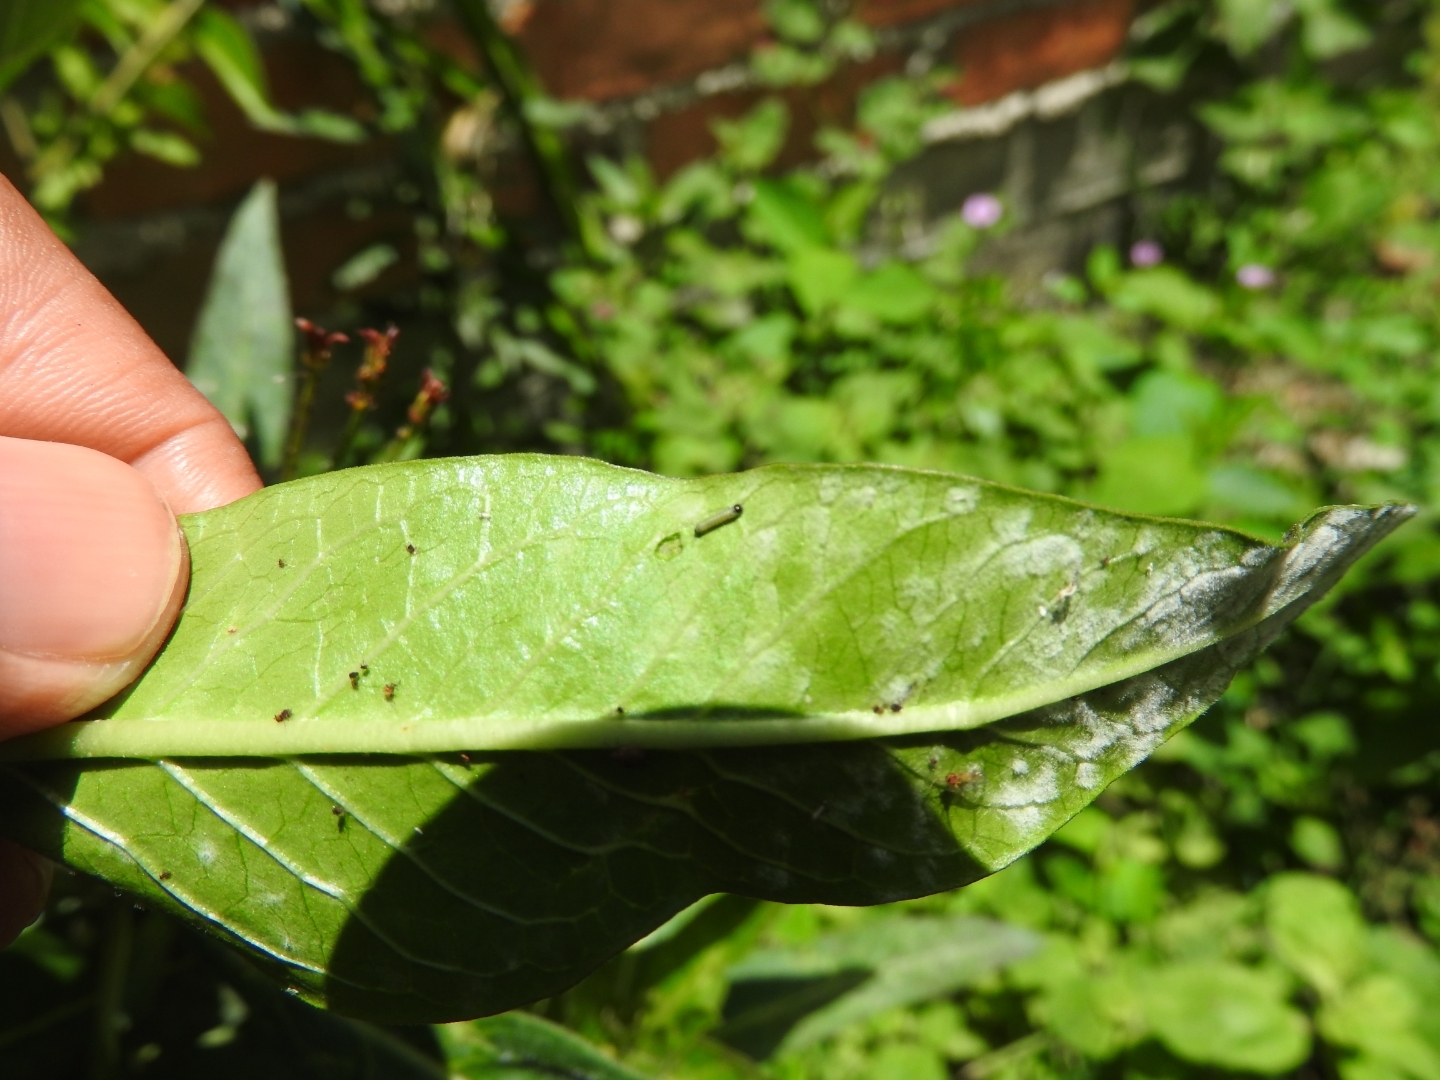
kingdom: Animalia
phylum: Arthropoda
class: Insecta
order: Lepidoptera
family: Nymphalidae
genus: Danaus
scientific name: Danaus plexippus
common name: Monarch
